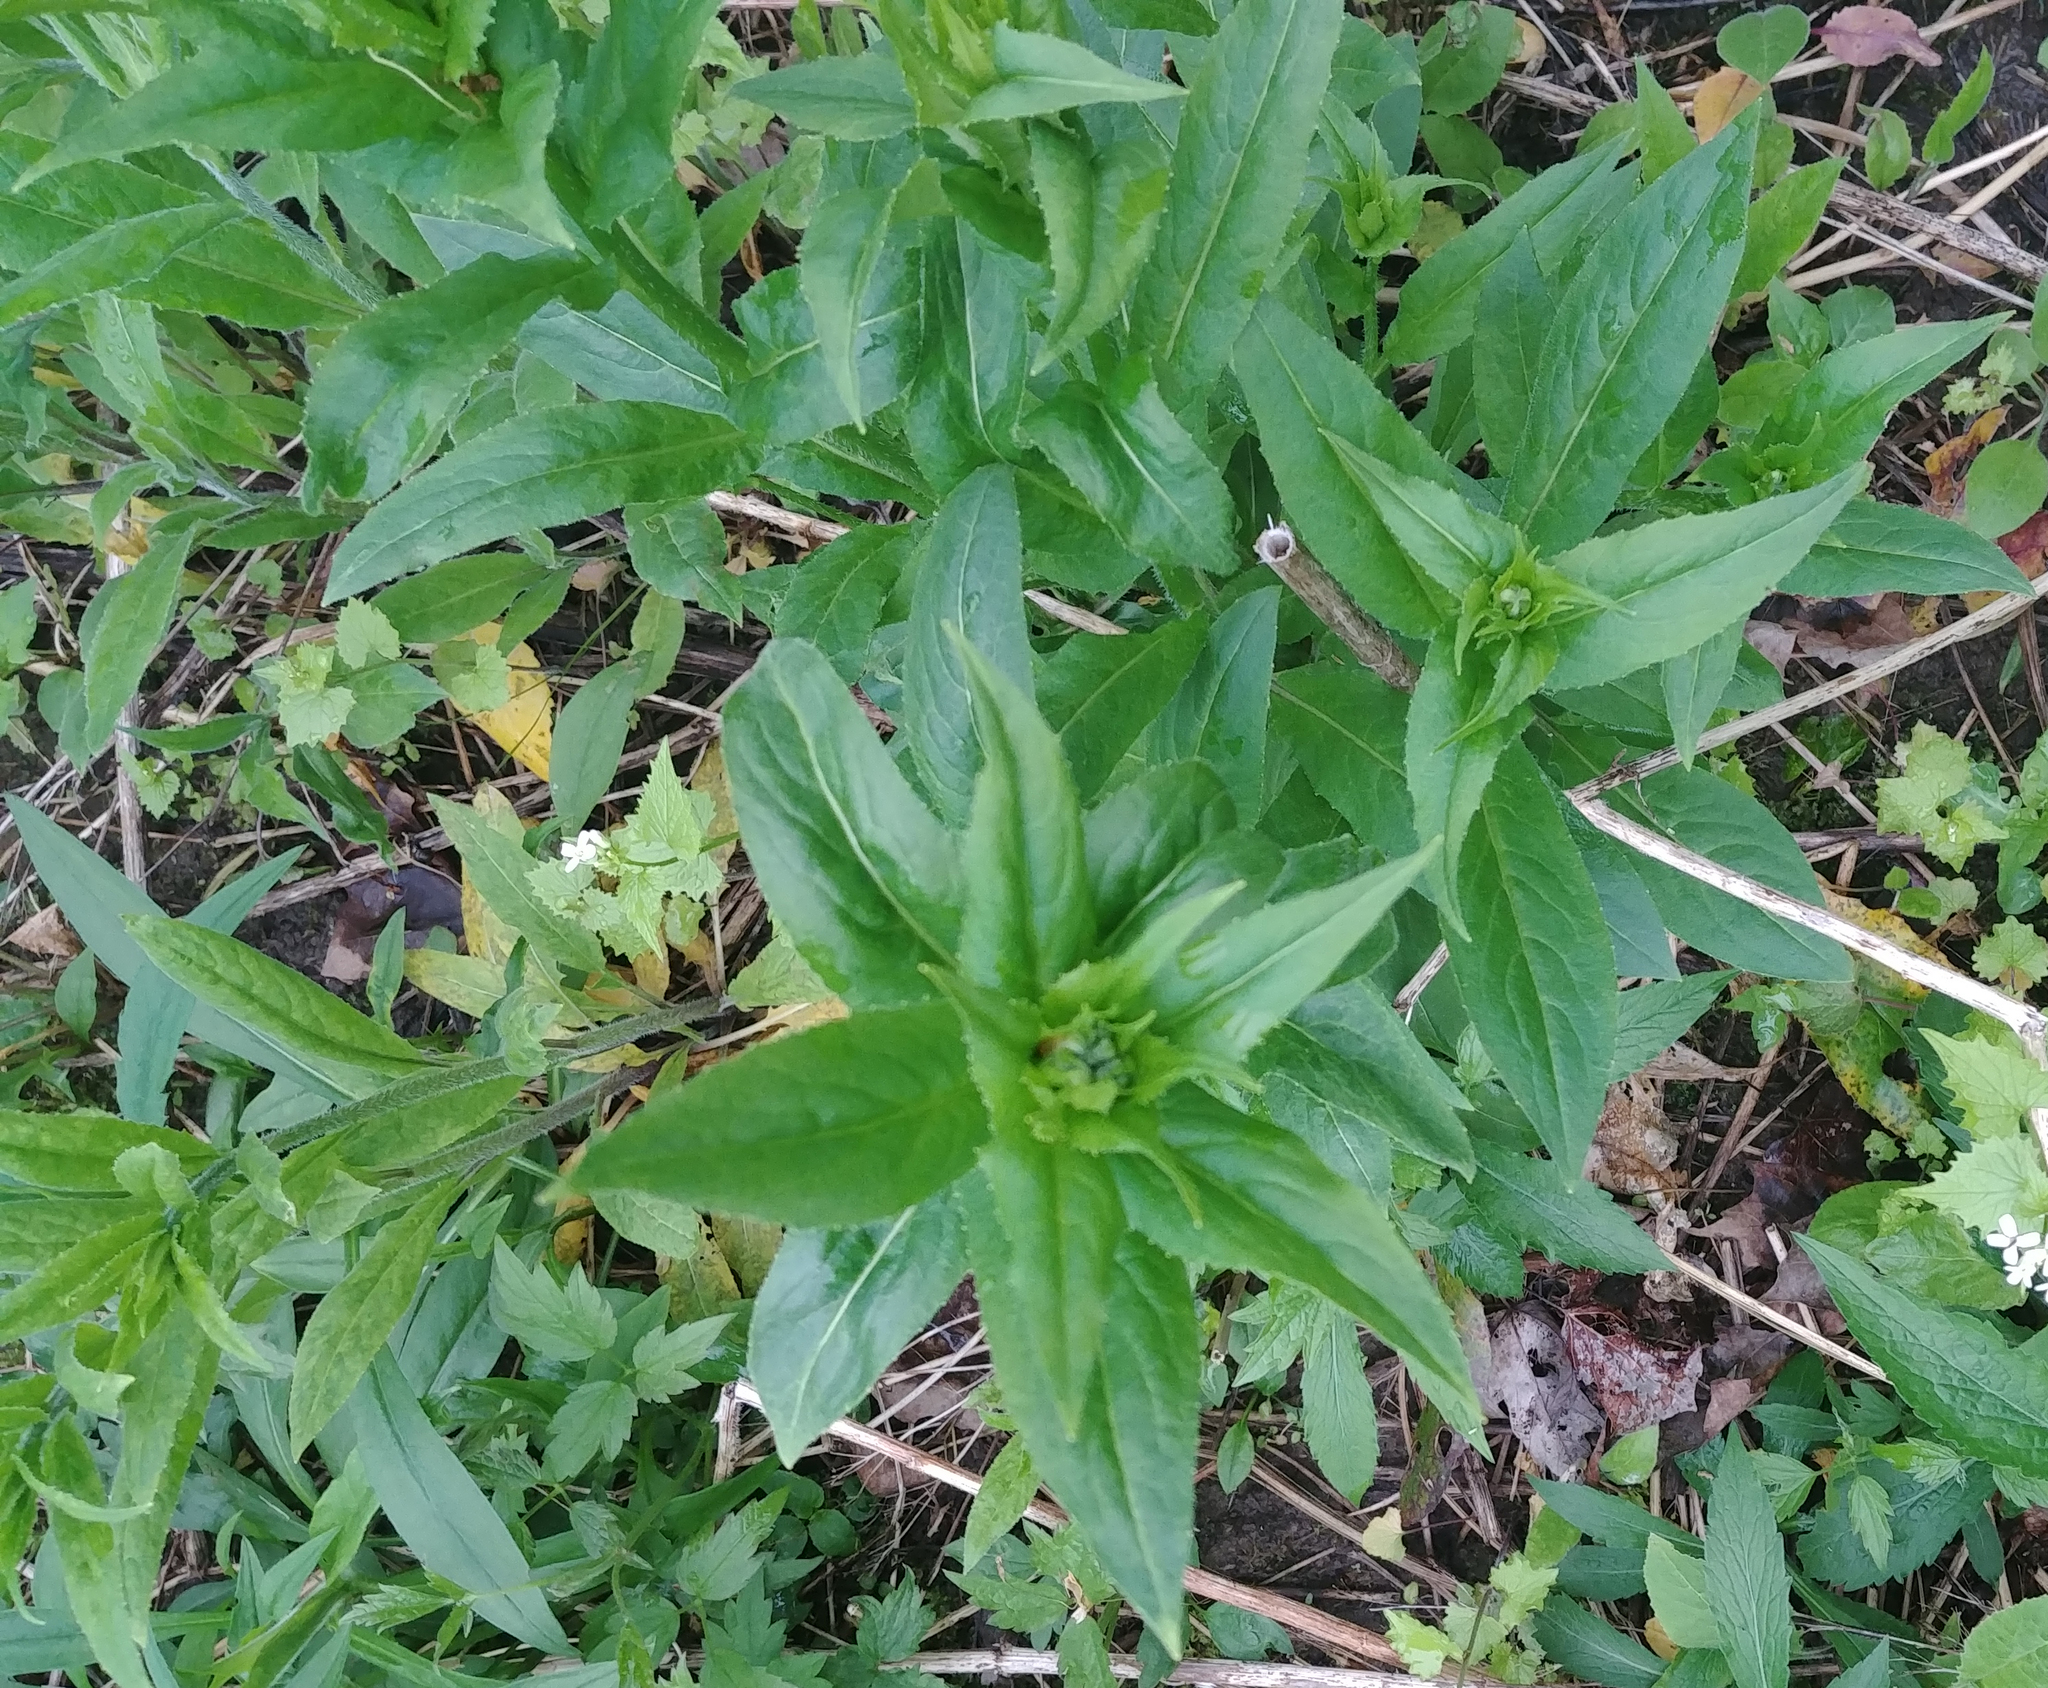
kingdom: Plantae
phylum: Tracheophyta
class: Magnoliopsida
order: Brassicales
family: Brassicaceae
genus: Hesperis
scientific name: Hesperis matronalis
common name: Dame's-violet
